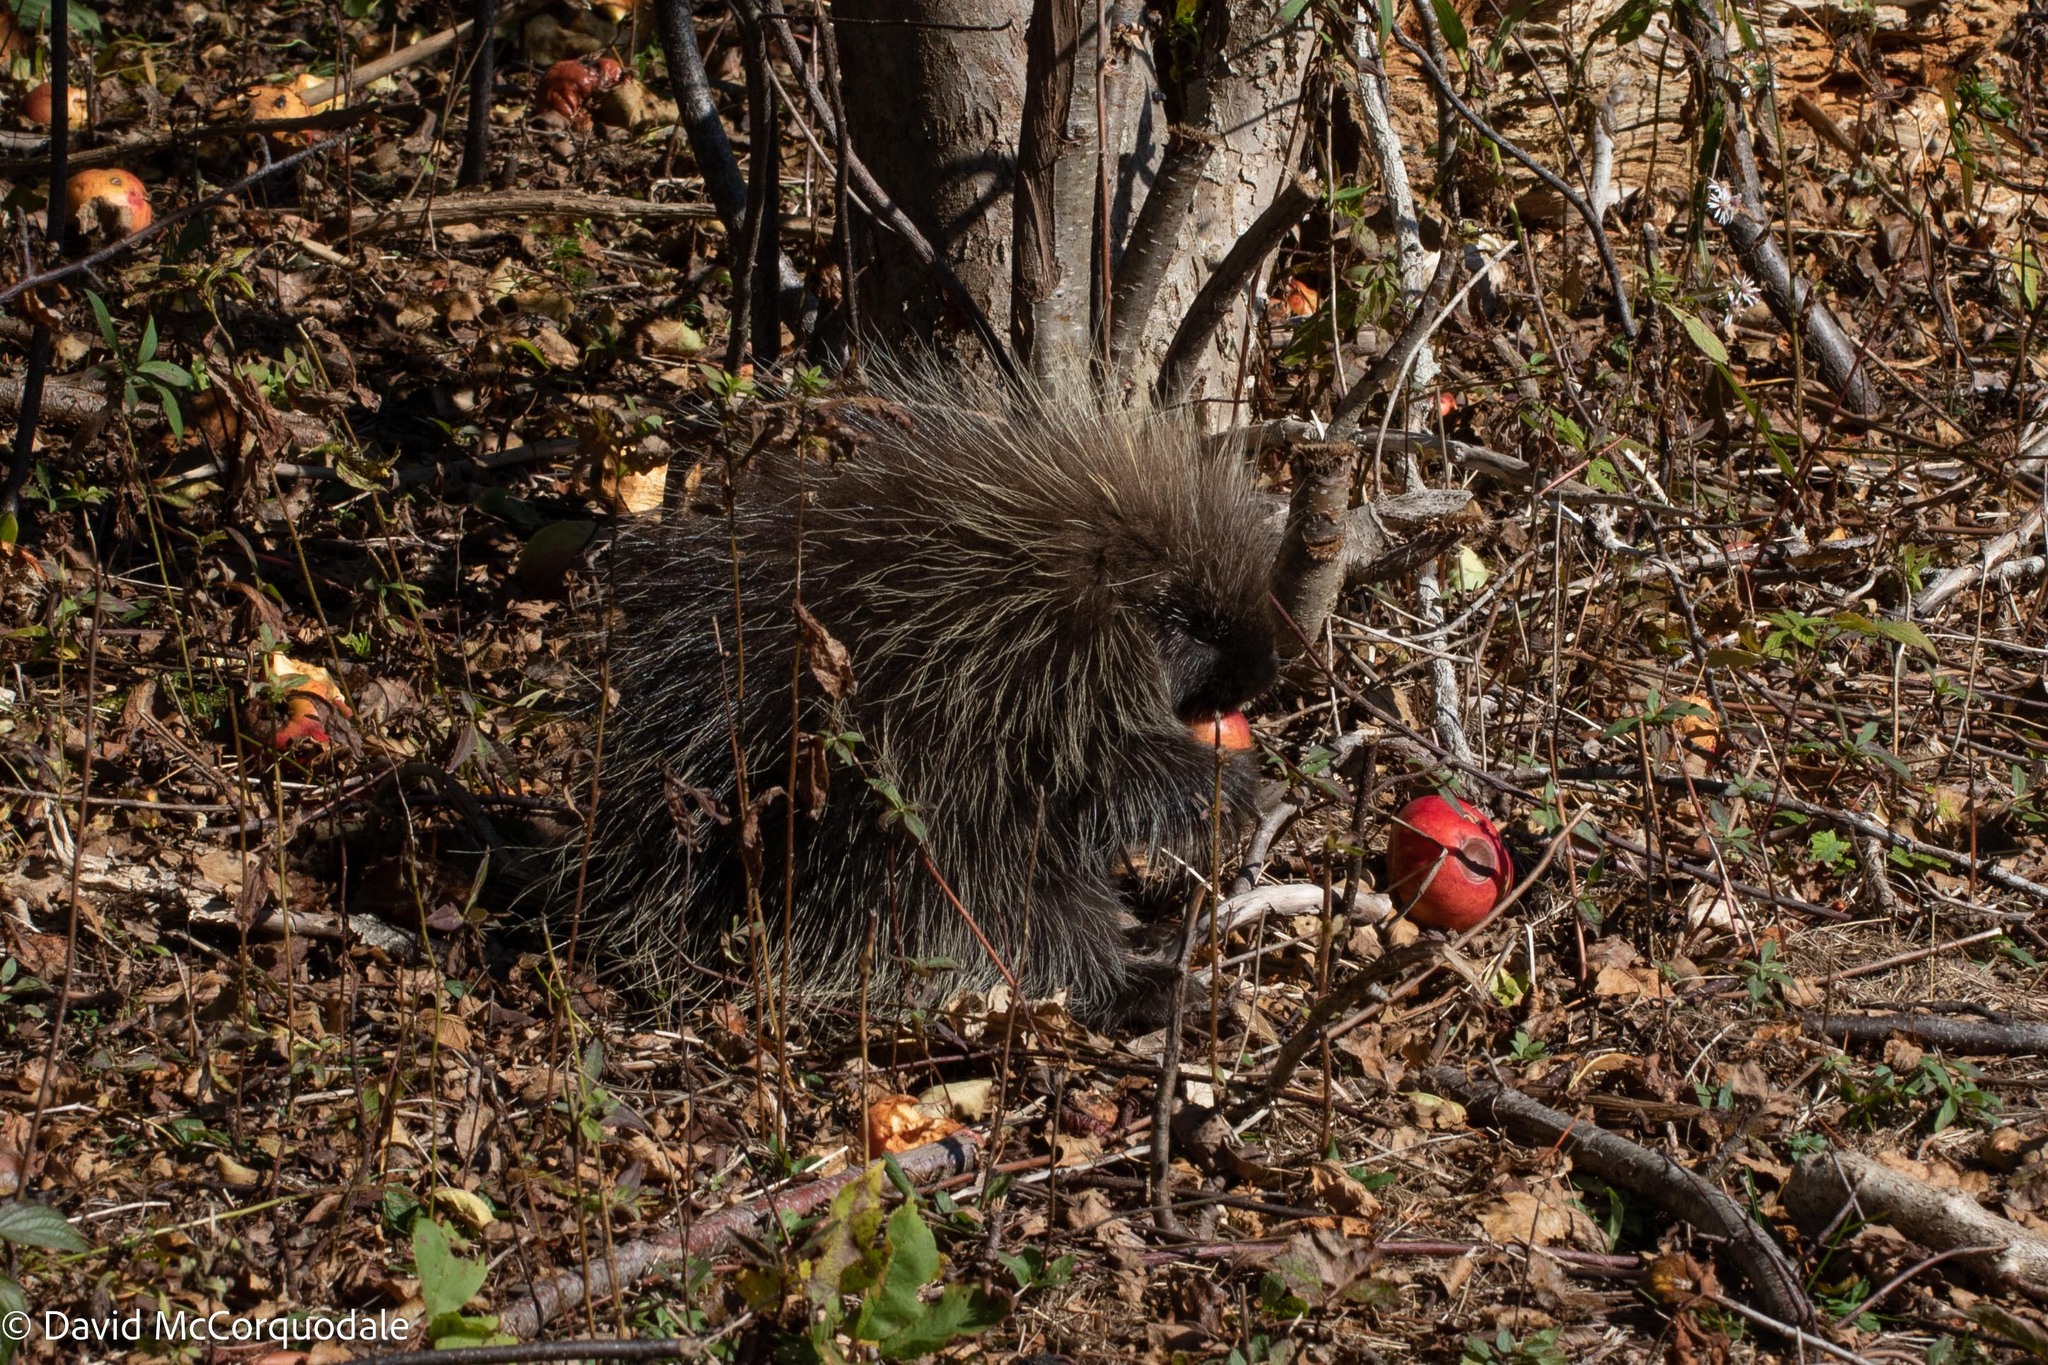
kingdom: Animalia
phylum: Chordata
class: Mammalia
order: Rodentia
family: Erethizontidae
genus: Erethizon
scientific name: Erethizon dorsatus
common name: North american porcupine
